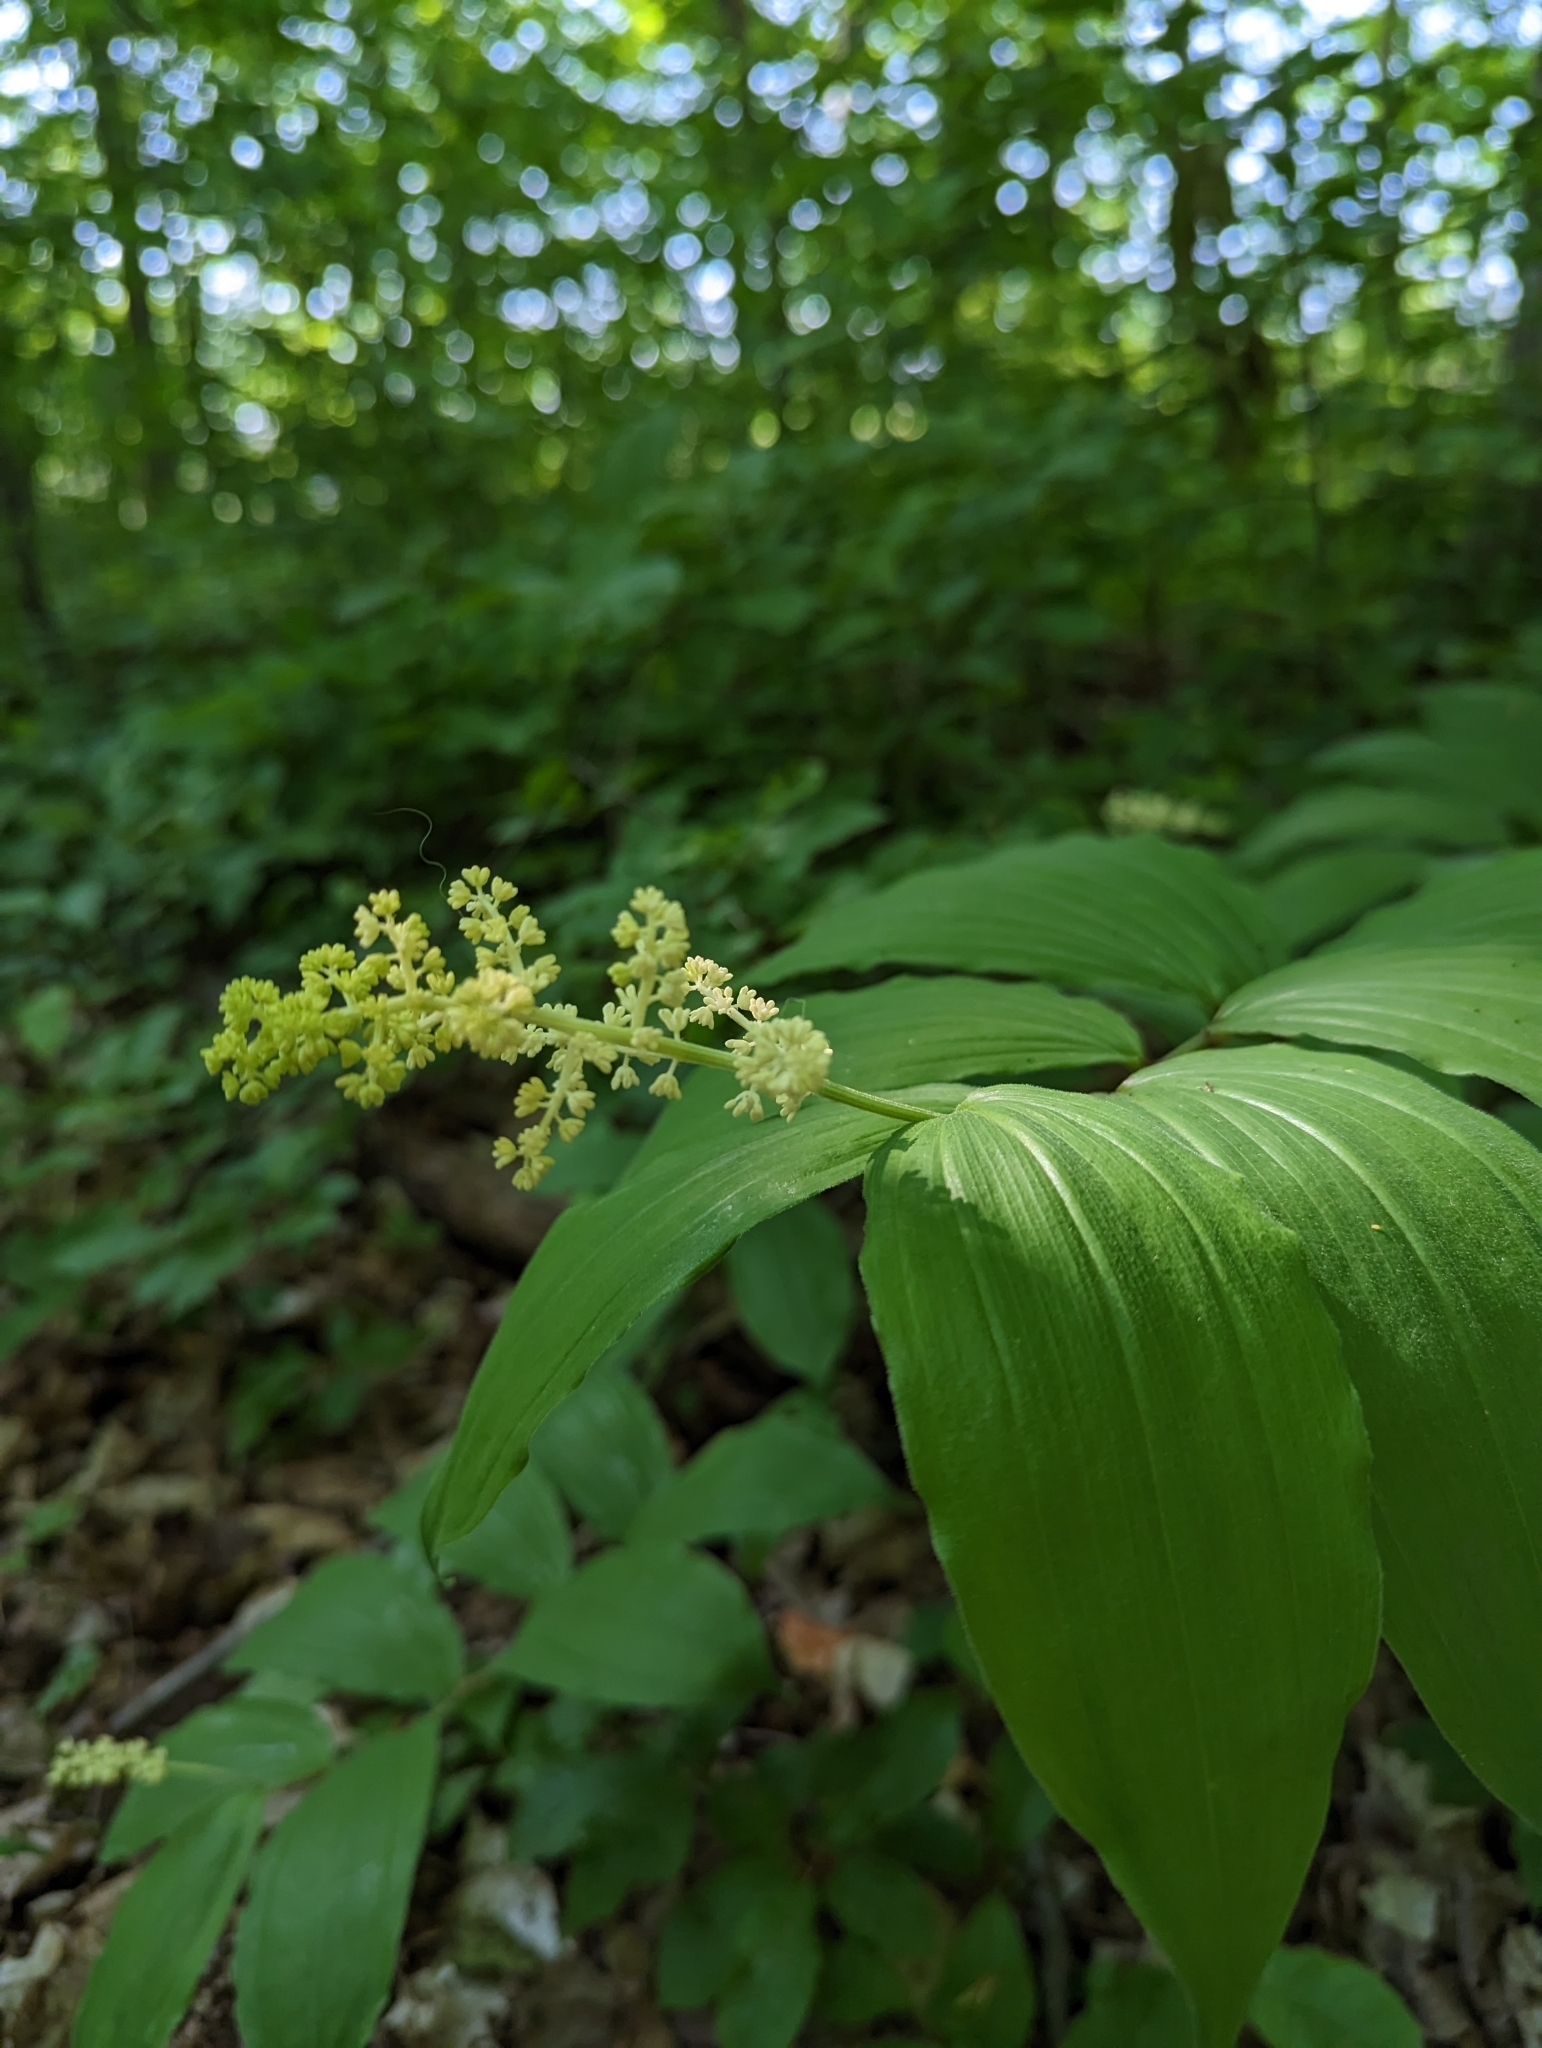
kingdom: Plantae
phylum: Tracheophyta
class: Liliopsida
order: Asparagales
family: Asparagaceae
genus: Maianthemum
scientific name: Maianthemum racemosum
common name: False spikenard
